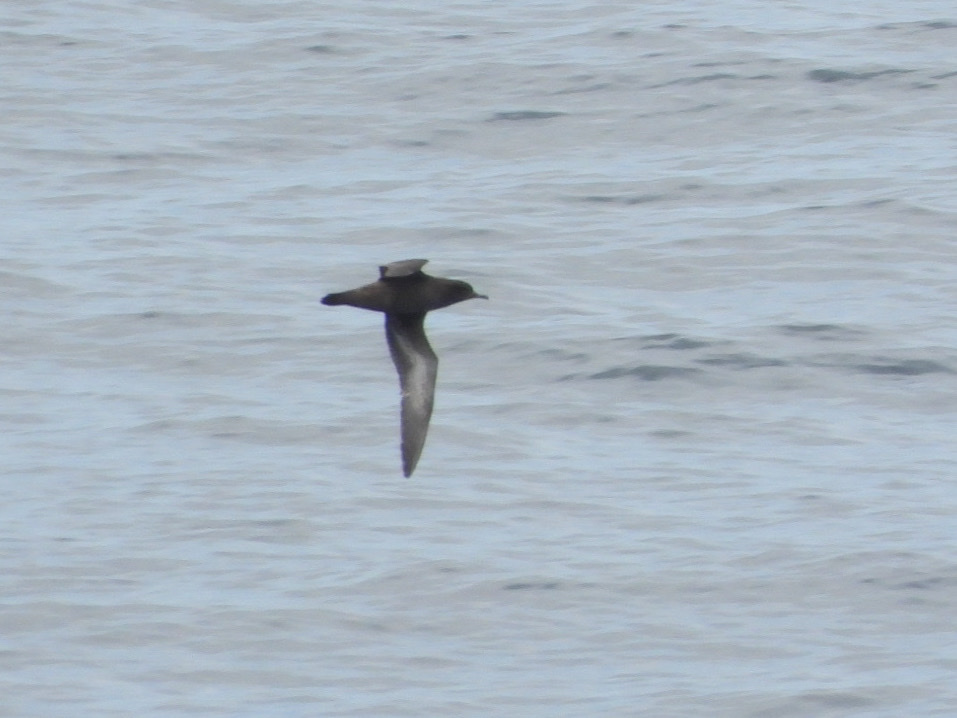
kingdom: Animalia
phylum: Chordata
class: Aves
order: Procellariiformes
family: Procellariidae
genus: Puffinus
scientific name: Puffinus griseus
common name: Sooty shearwater
